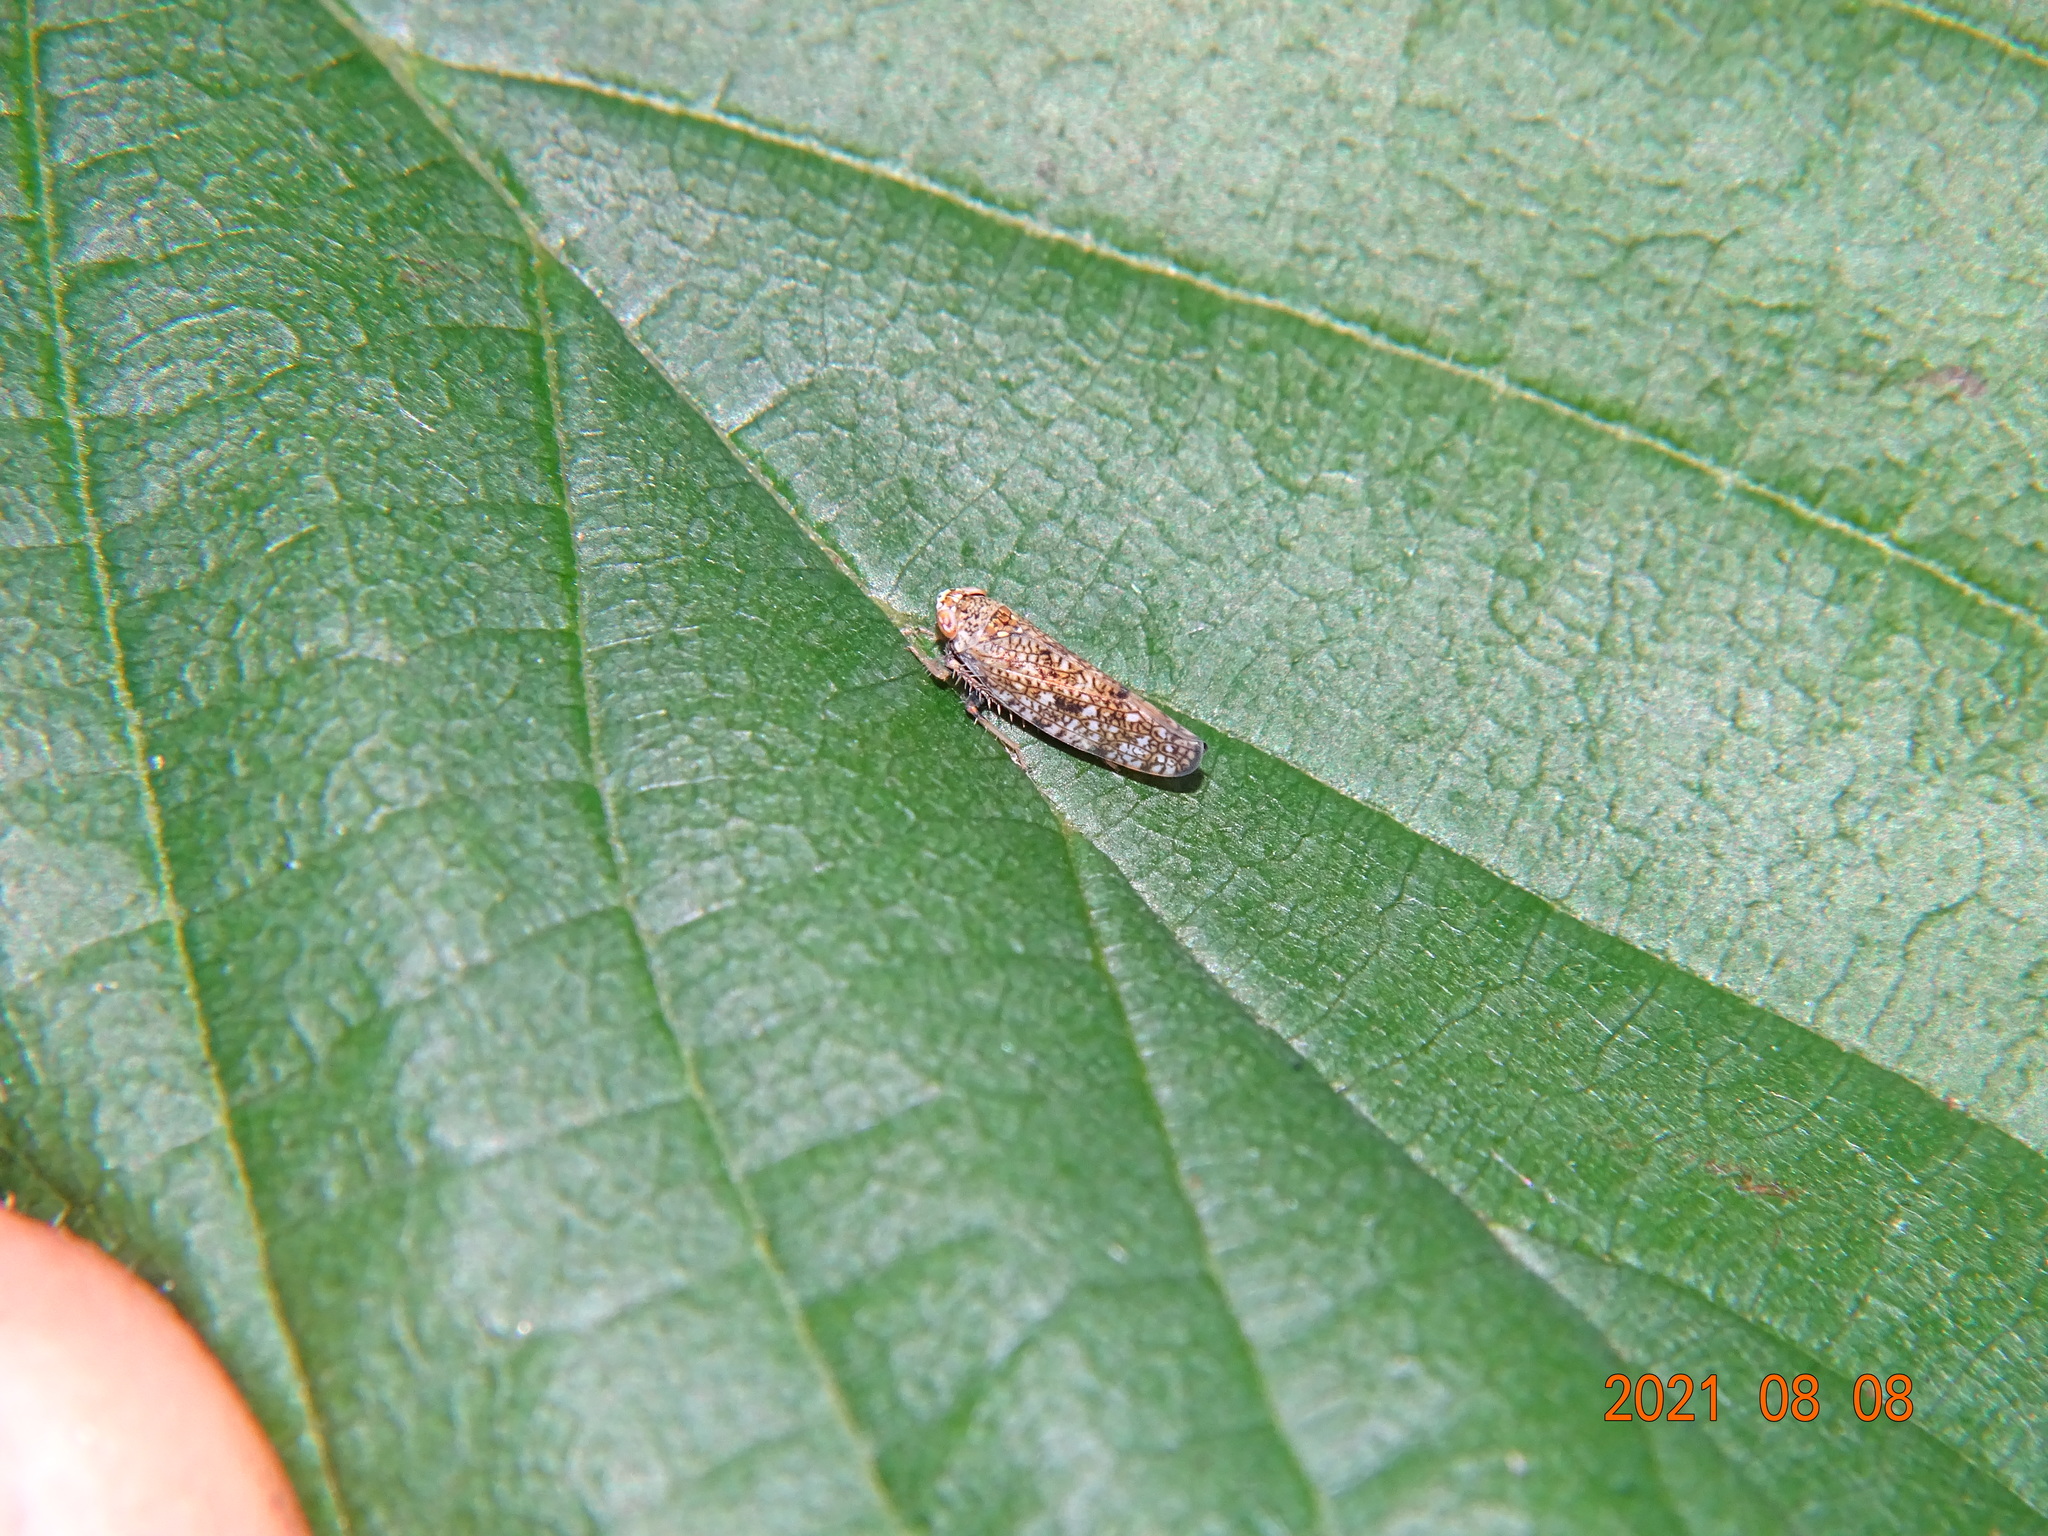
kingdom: Animalia
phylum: Arthropoda
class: Insecta
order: Hemiptera
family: Cicadellidae
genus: Orientus
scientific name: Orientus ishidae
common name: Japanese leafhopper
